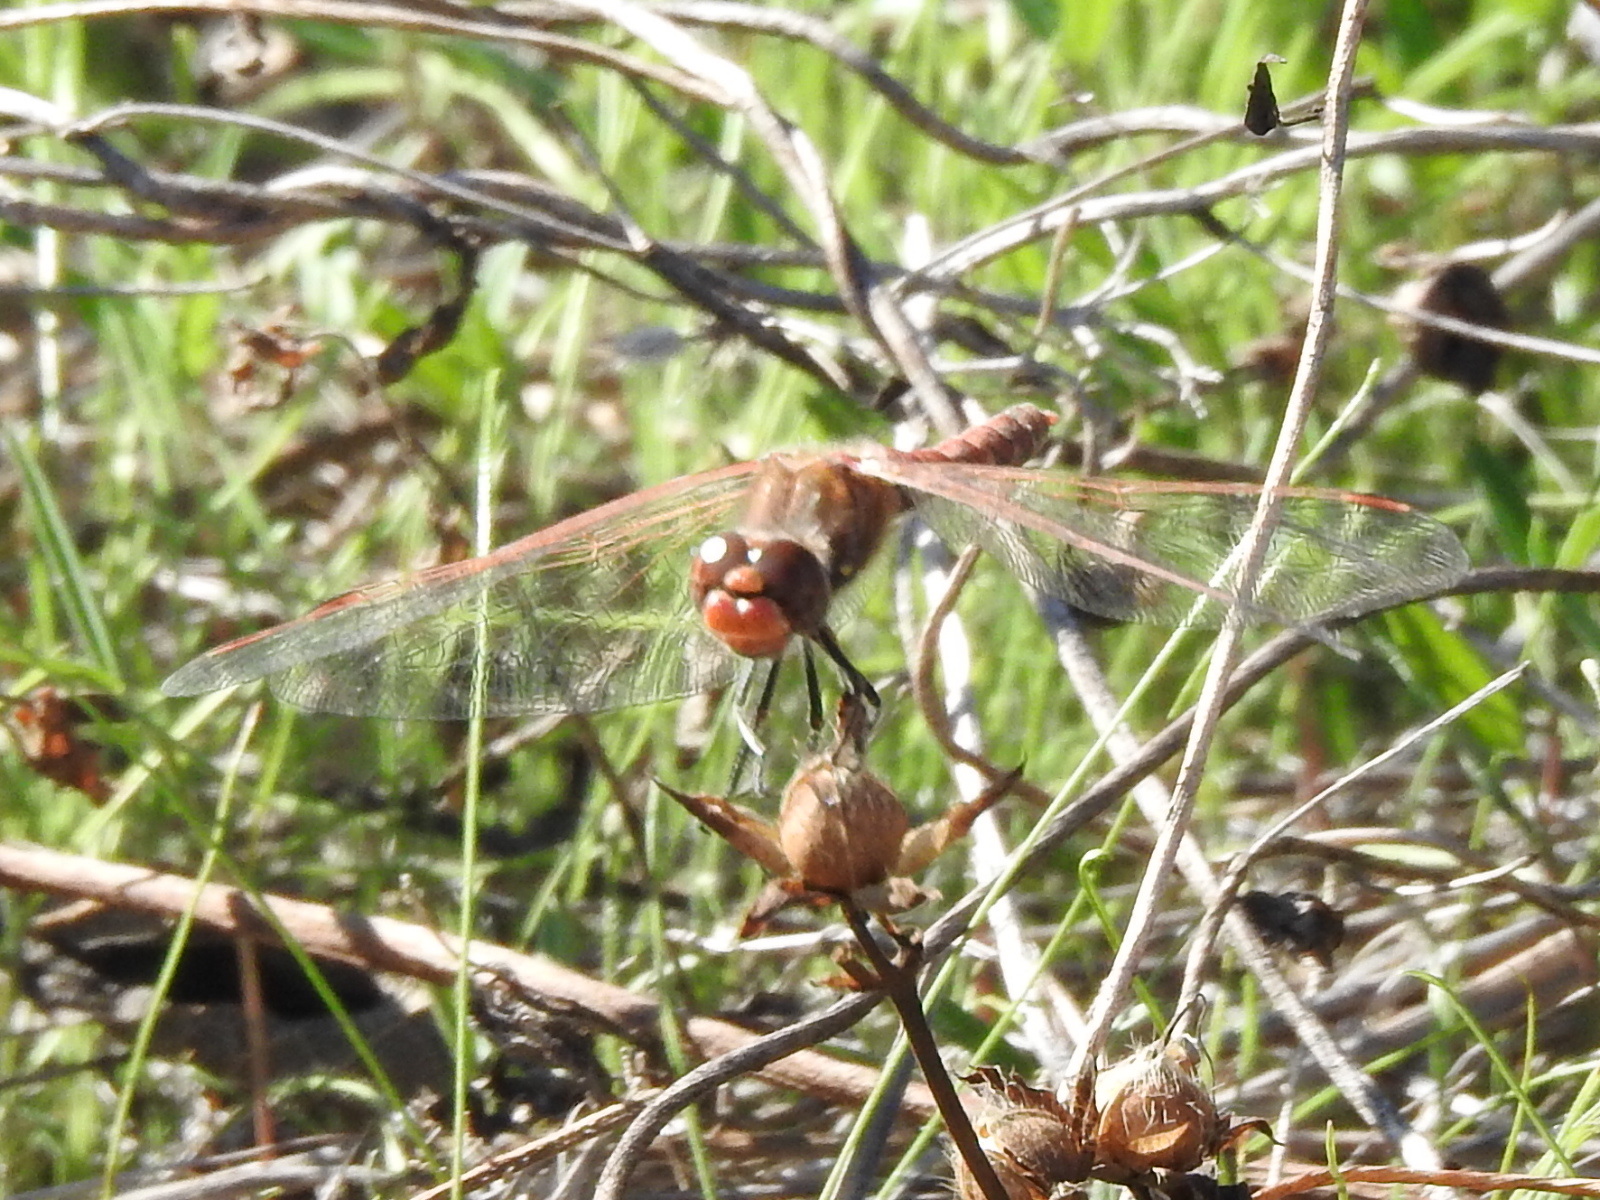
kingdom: Animalia
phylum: Arthropoda
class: Insecta
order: Odonata
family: Libellulidae
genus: Sympetrum
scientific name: Sympetrum corruptum
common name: Variegated meadowhawk
